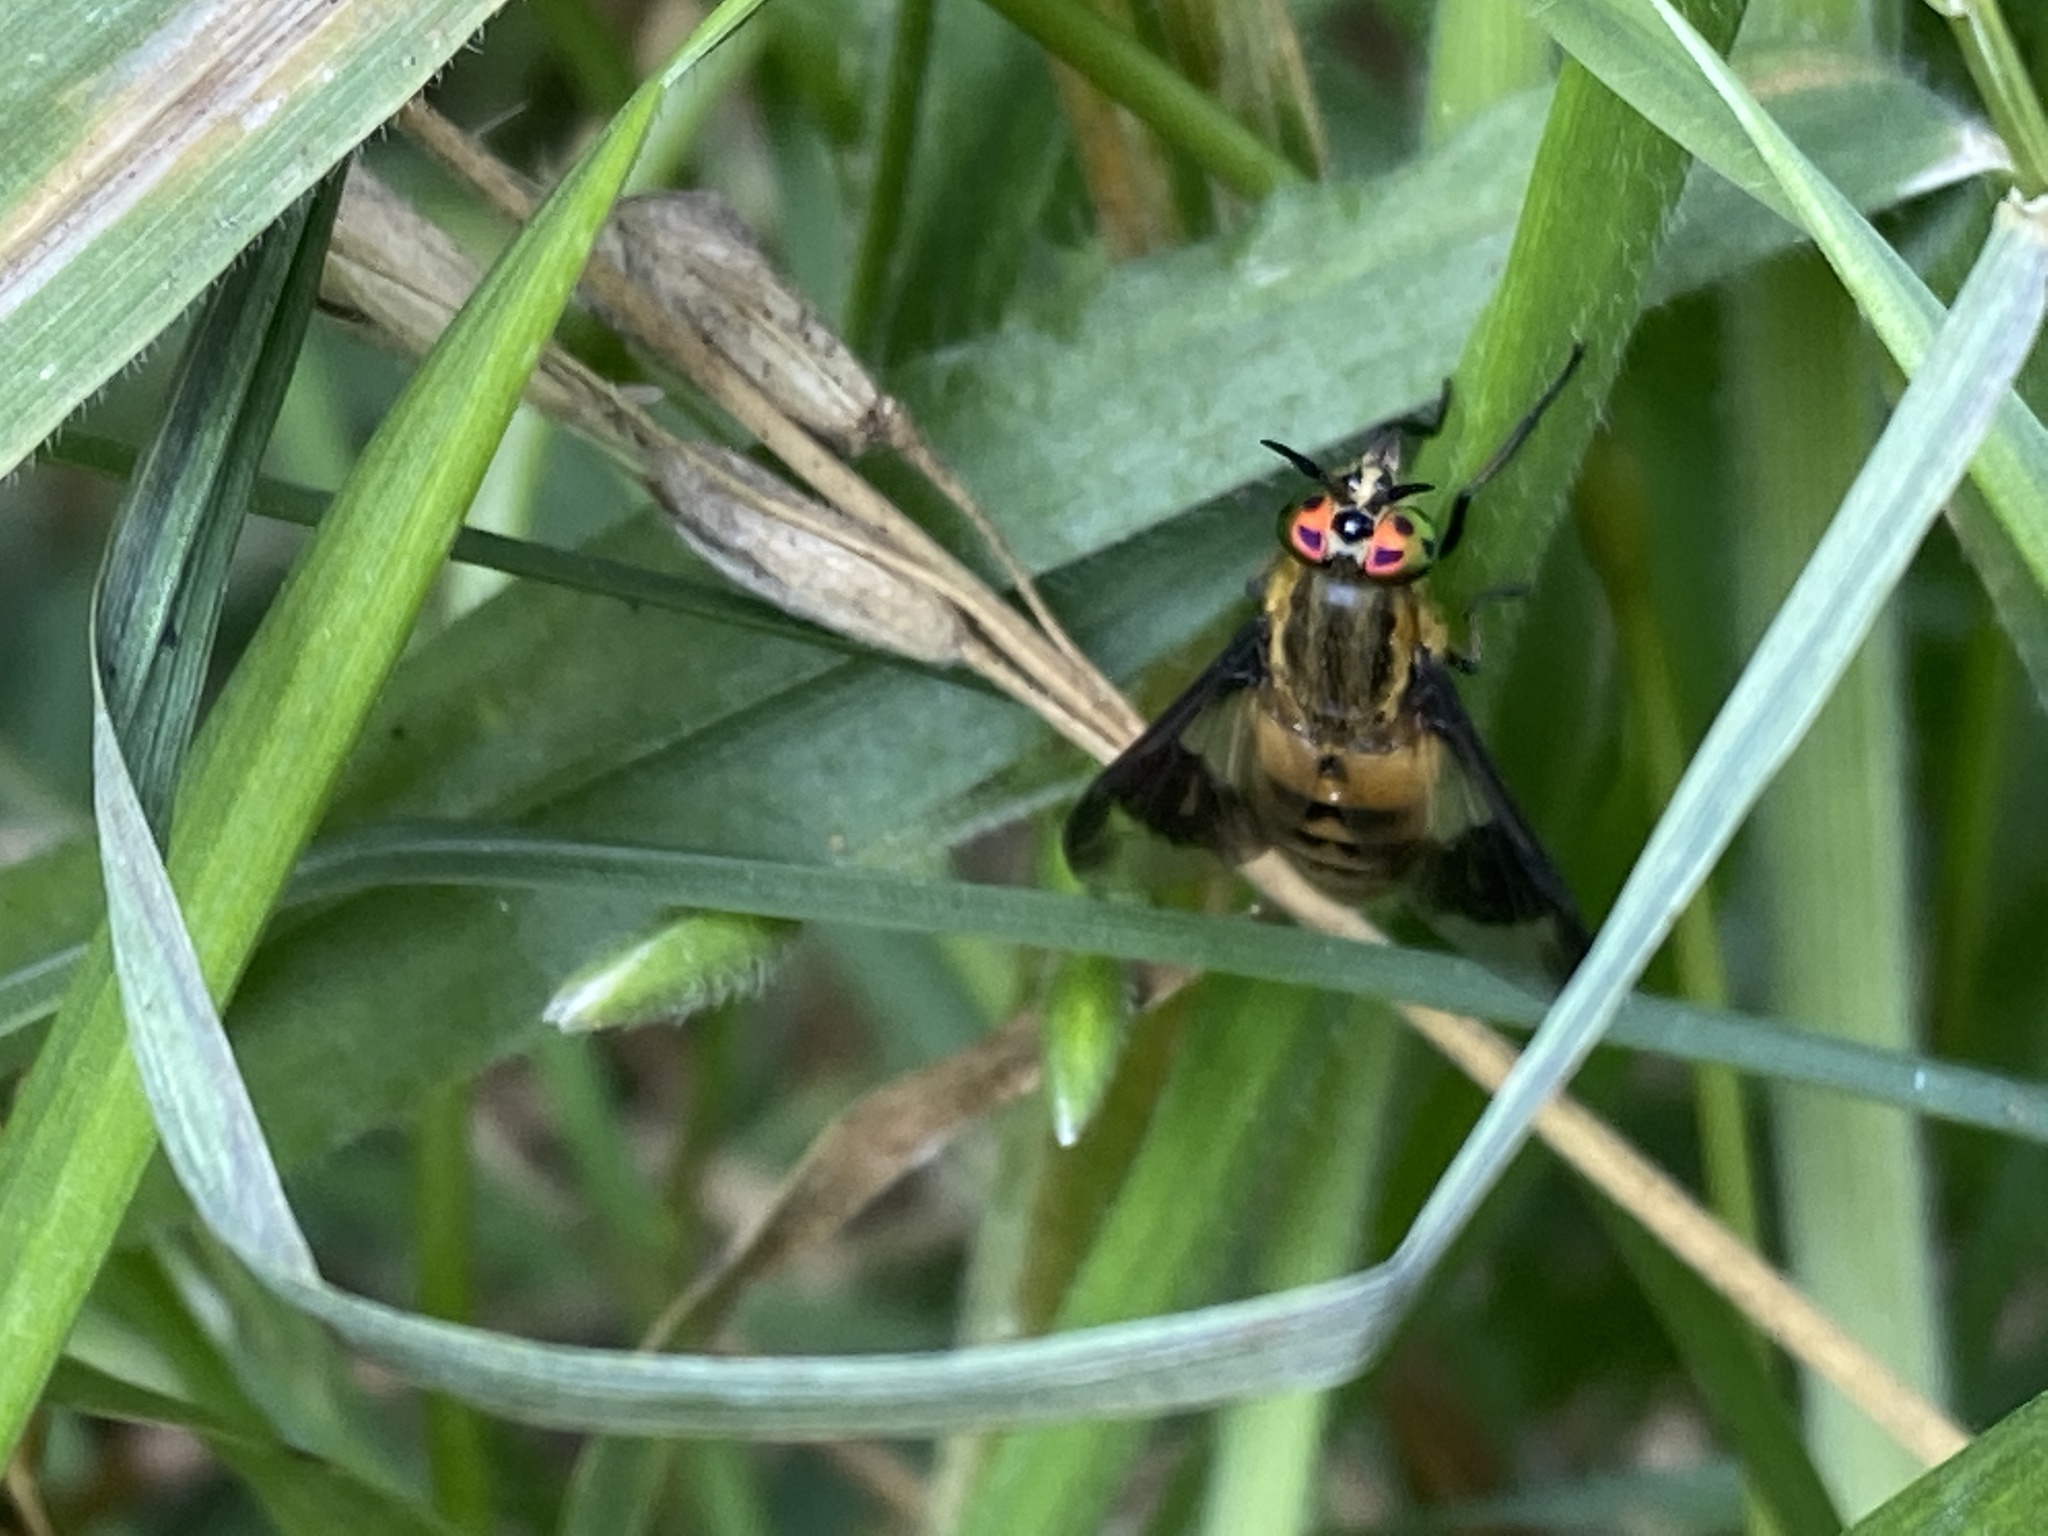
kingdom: Animalia
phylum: Arthropoda
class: Insecta
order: Diptera
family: Tabanidae
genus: Chrysops
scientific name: Chrysops viduatus
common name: Square-spot deerfly
